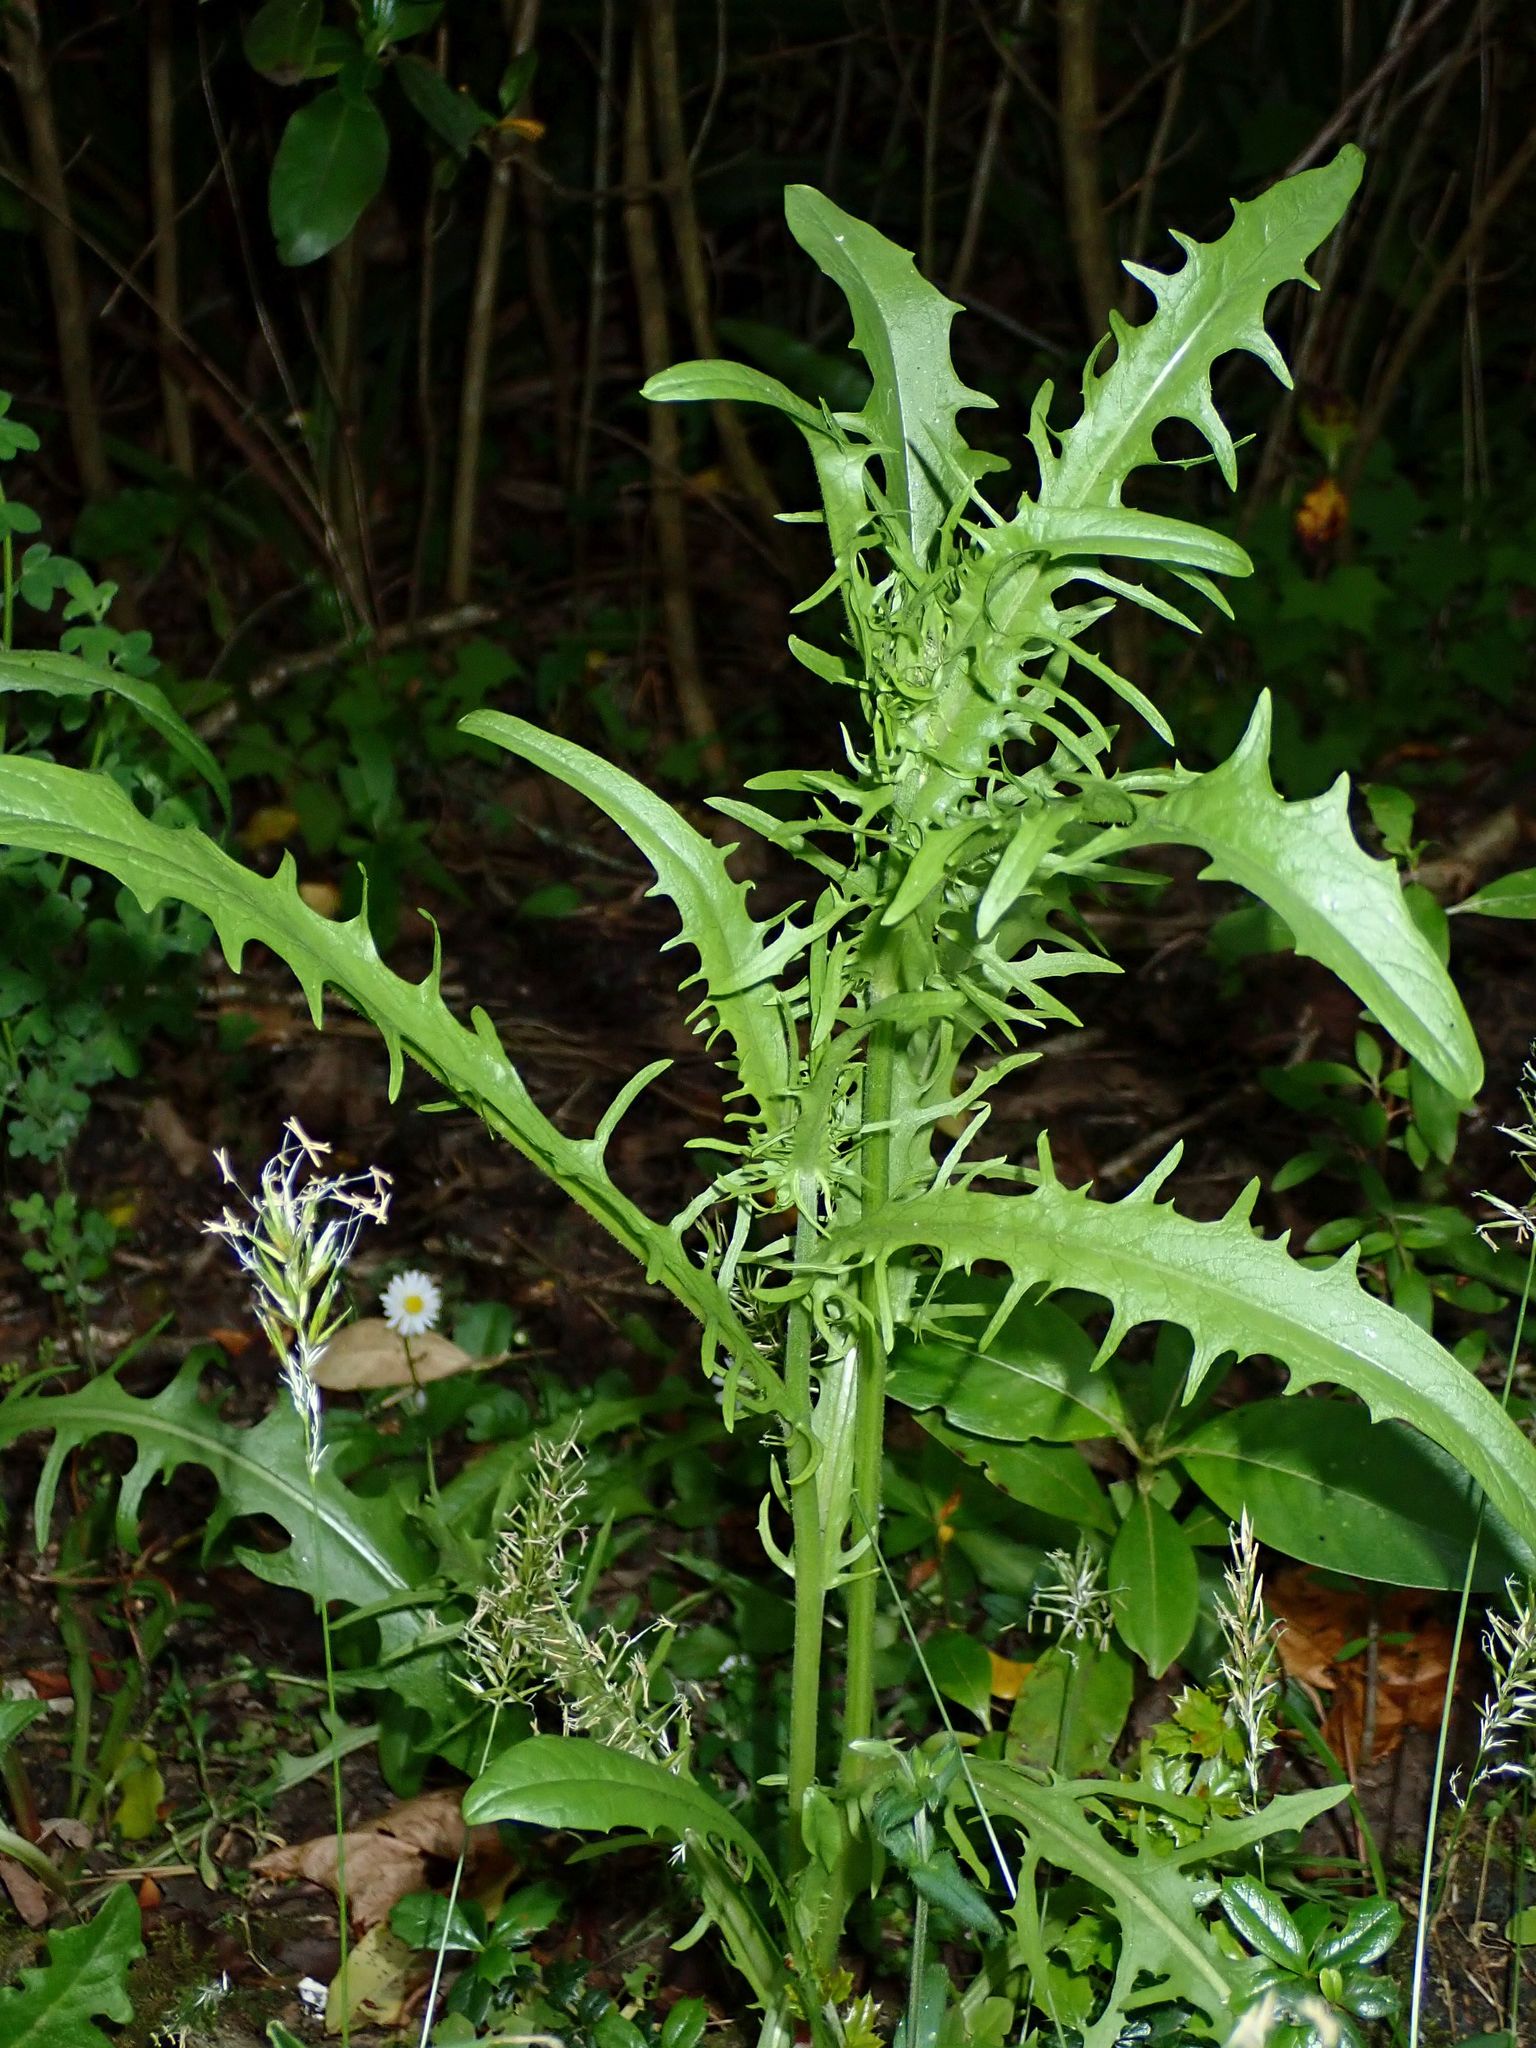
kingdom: Plantae
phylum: Tracheophyta
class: Magnoliopsida
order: Asterales
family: Asteraceae
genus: Crepis
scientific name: Crepis capillaris
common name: Smooth hawksbeard
